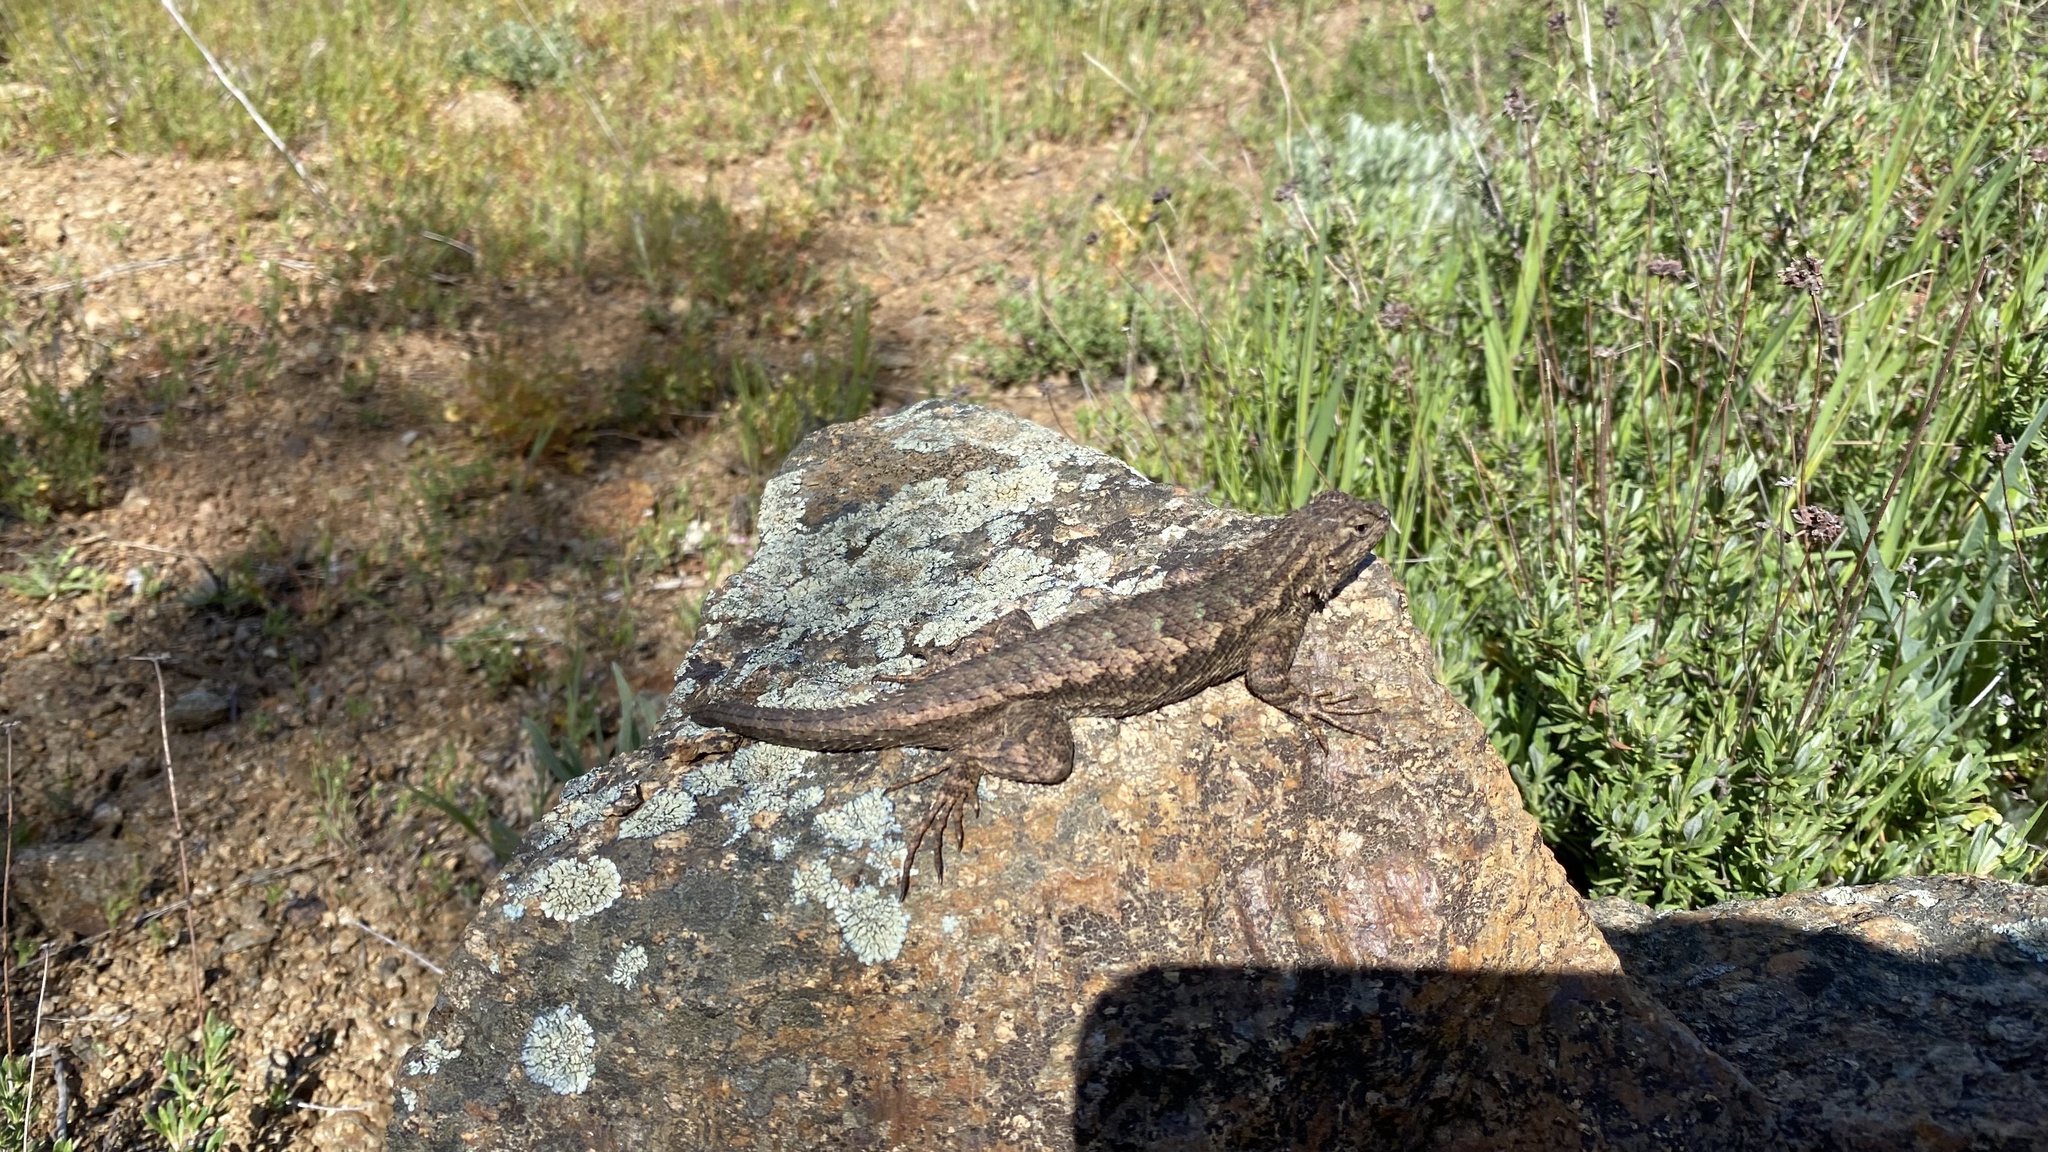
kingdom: Animalia
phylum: Chordata
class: Squamata
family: Phrynosomatidae
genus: Sceloporus
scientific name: Sceloporus occidentalis
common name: Western fence lizard
